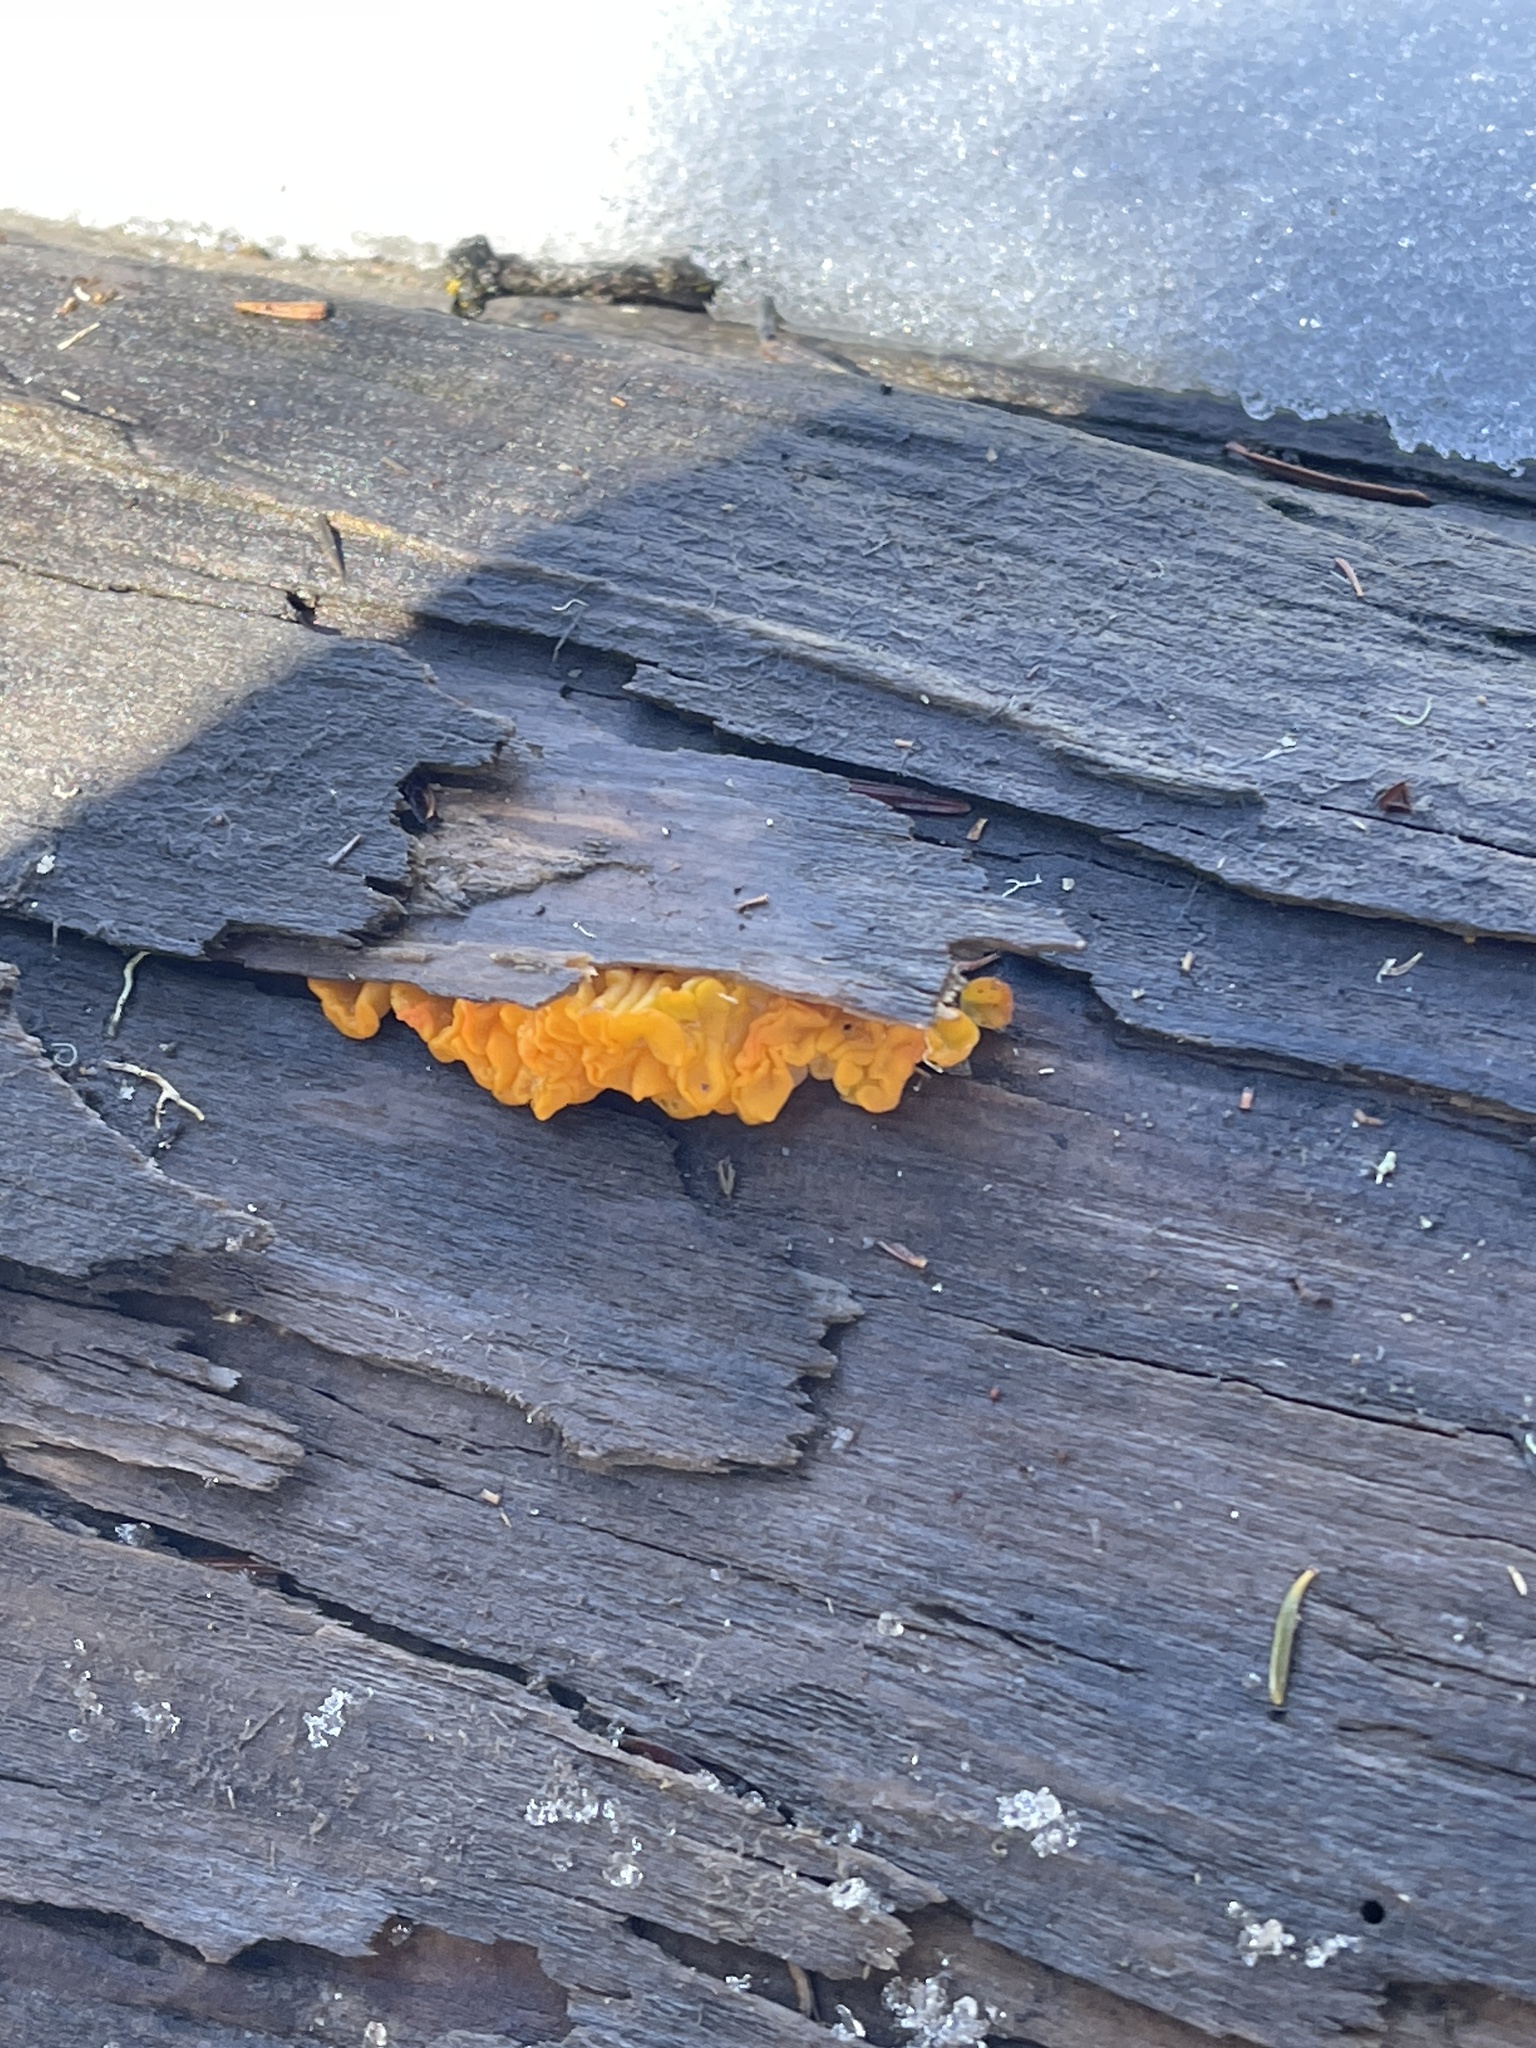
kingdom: Fungi
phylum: Basidiomycota
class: Dacrymycetes
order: Dacrymycetales
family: Dacrymycetaceae
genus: Dacrymyces
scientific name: Dacrymyces chrysospermus
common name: Orange jelly spot
